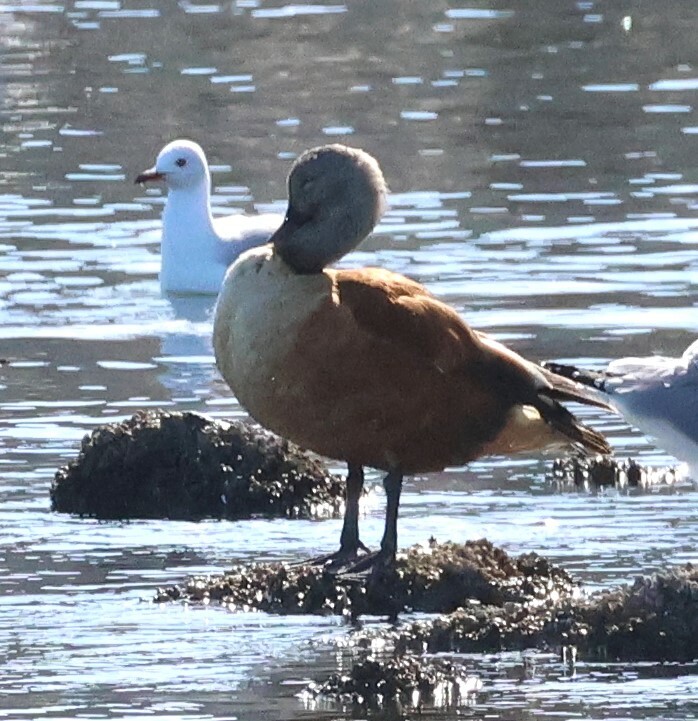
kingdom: Animalia
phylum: Chordata
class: Aves
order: Anseriformes
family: Anatidae
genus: Tadorna
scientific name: Tadorna cana
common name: South african shelduck
